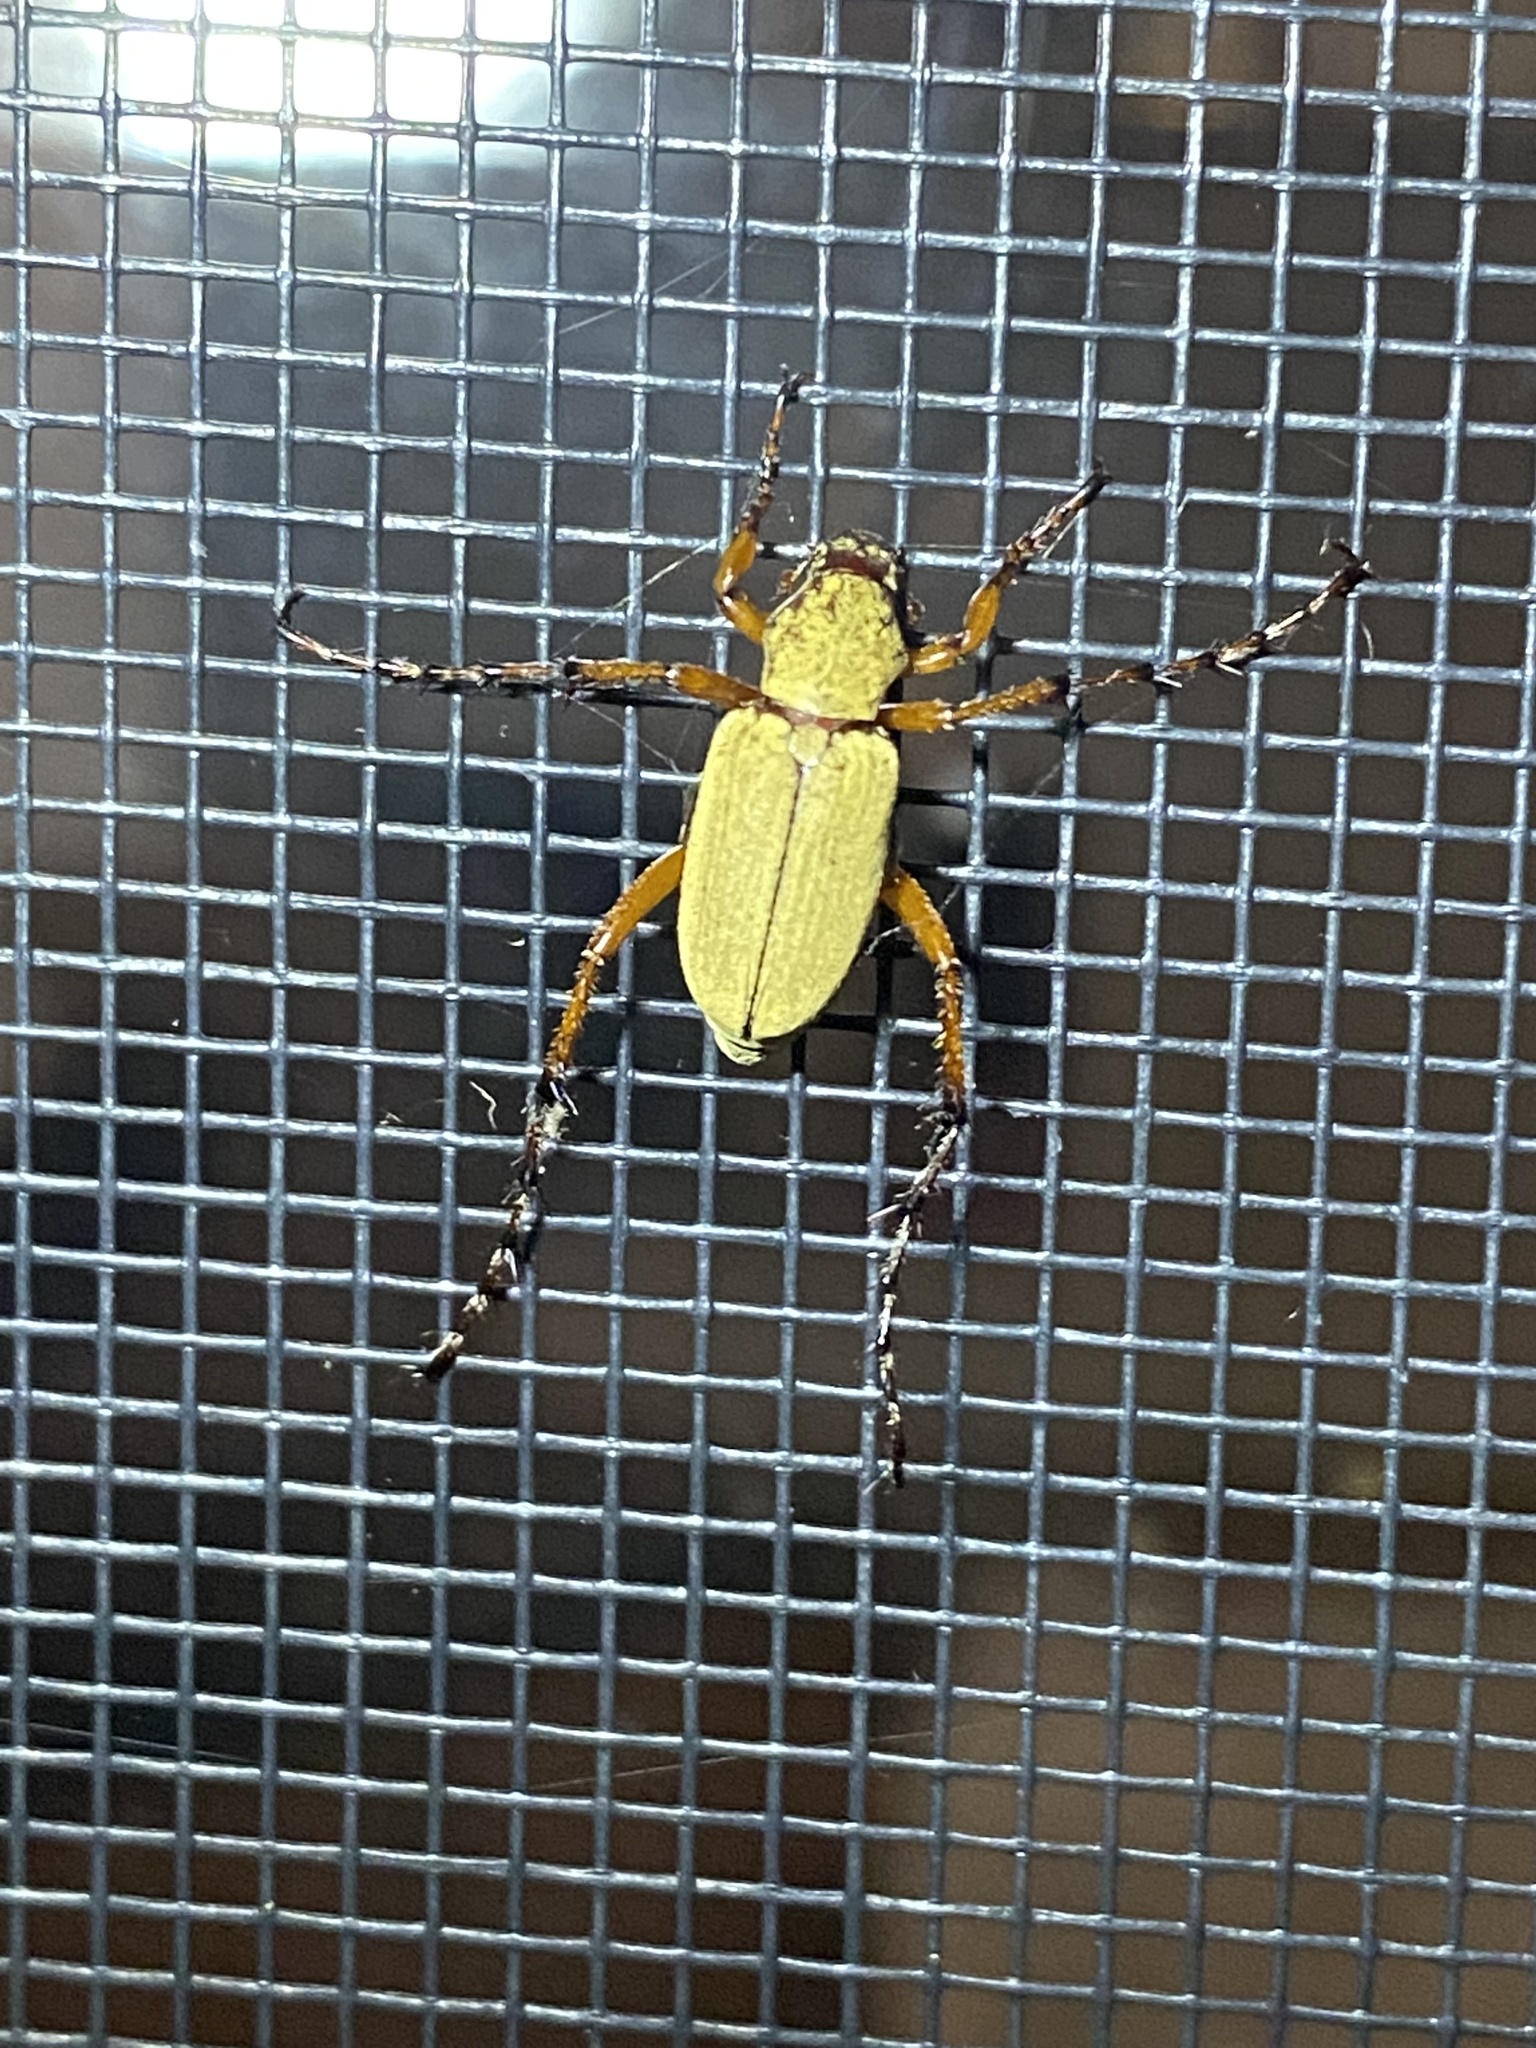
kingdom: Animalia
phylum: Arthropoda
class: Insecta
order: Coleoptera
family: Scarabaeidae
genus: Macrodactylus
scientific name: Macrodactylus subspinosus
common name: American rose chafer
